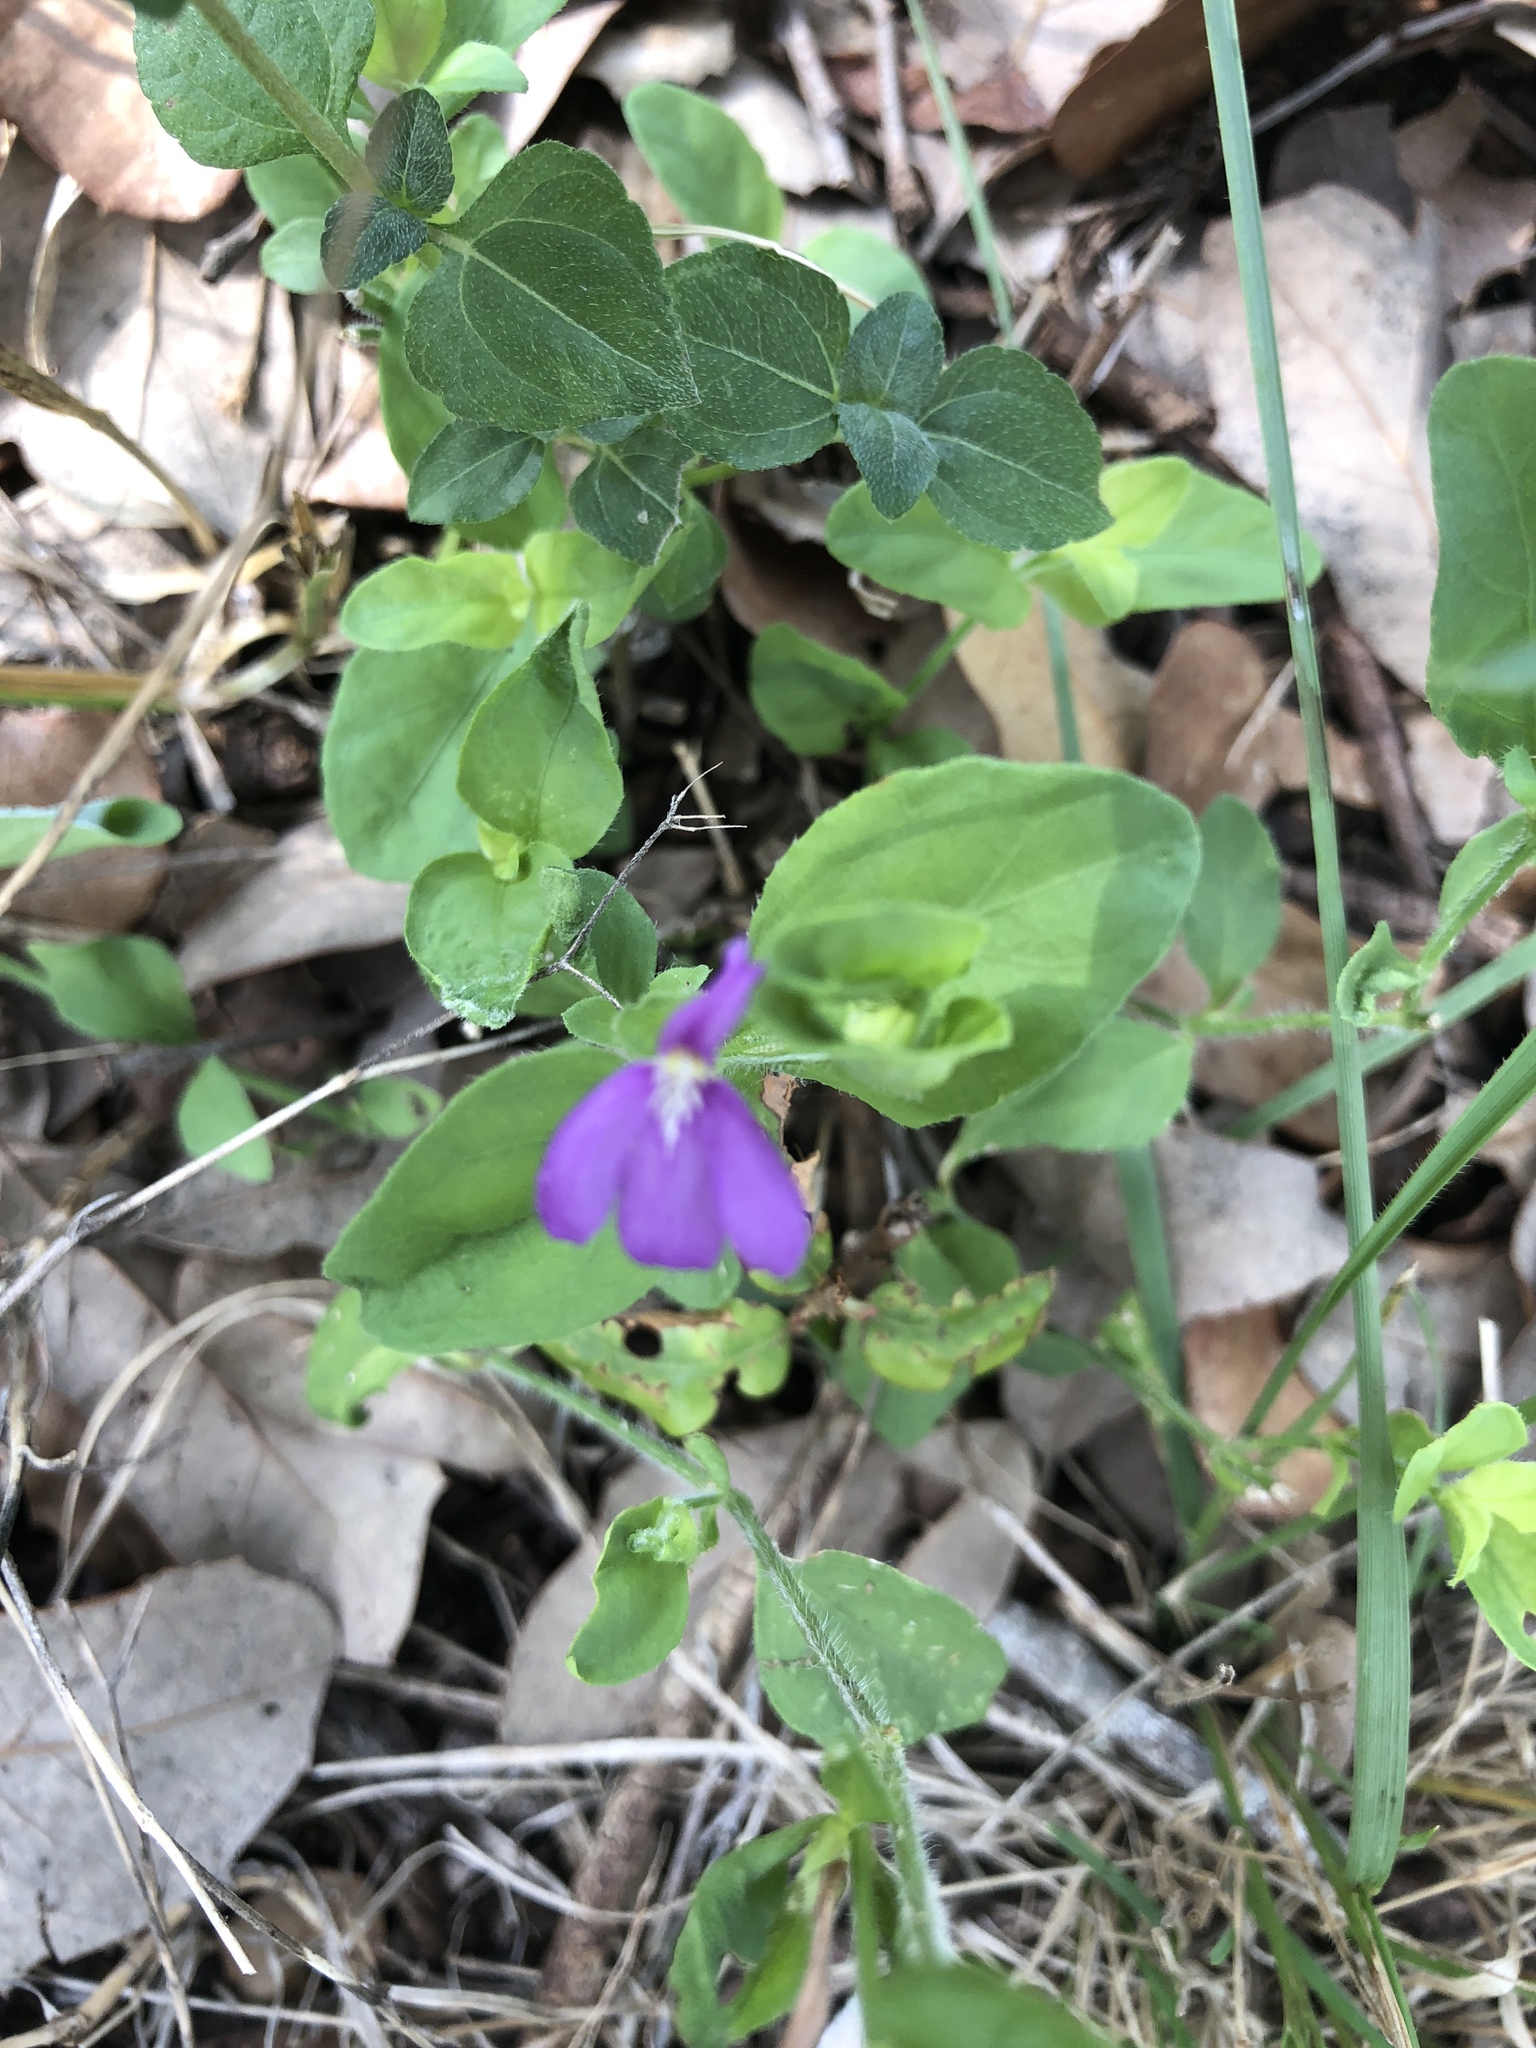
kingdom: Plantae
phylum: Tracheophyta
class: Magnoliopsida
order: Lamiales
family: Acanthaceae
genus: Justicia
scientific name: Justicia pilosella
